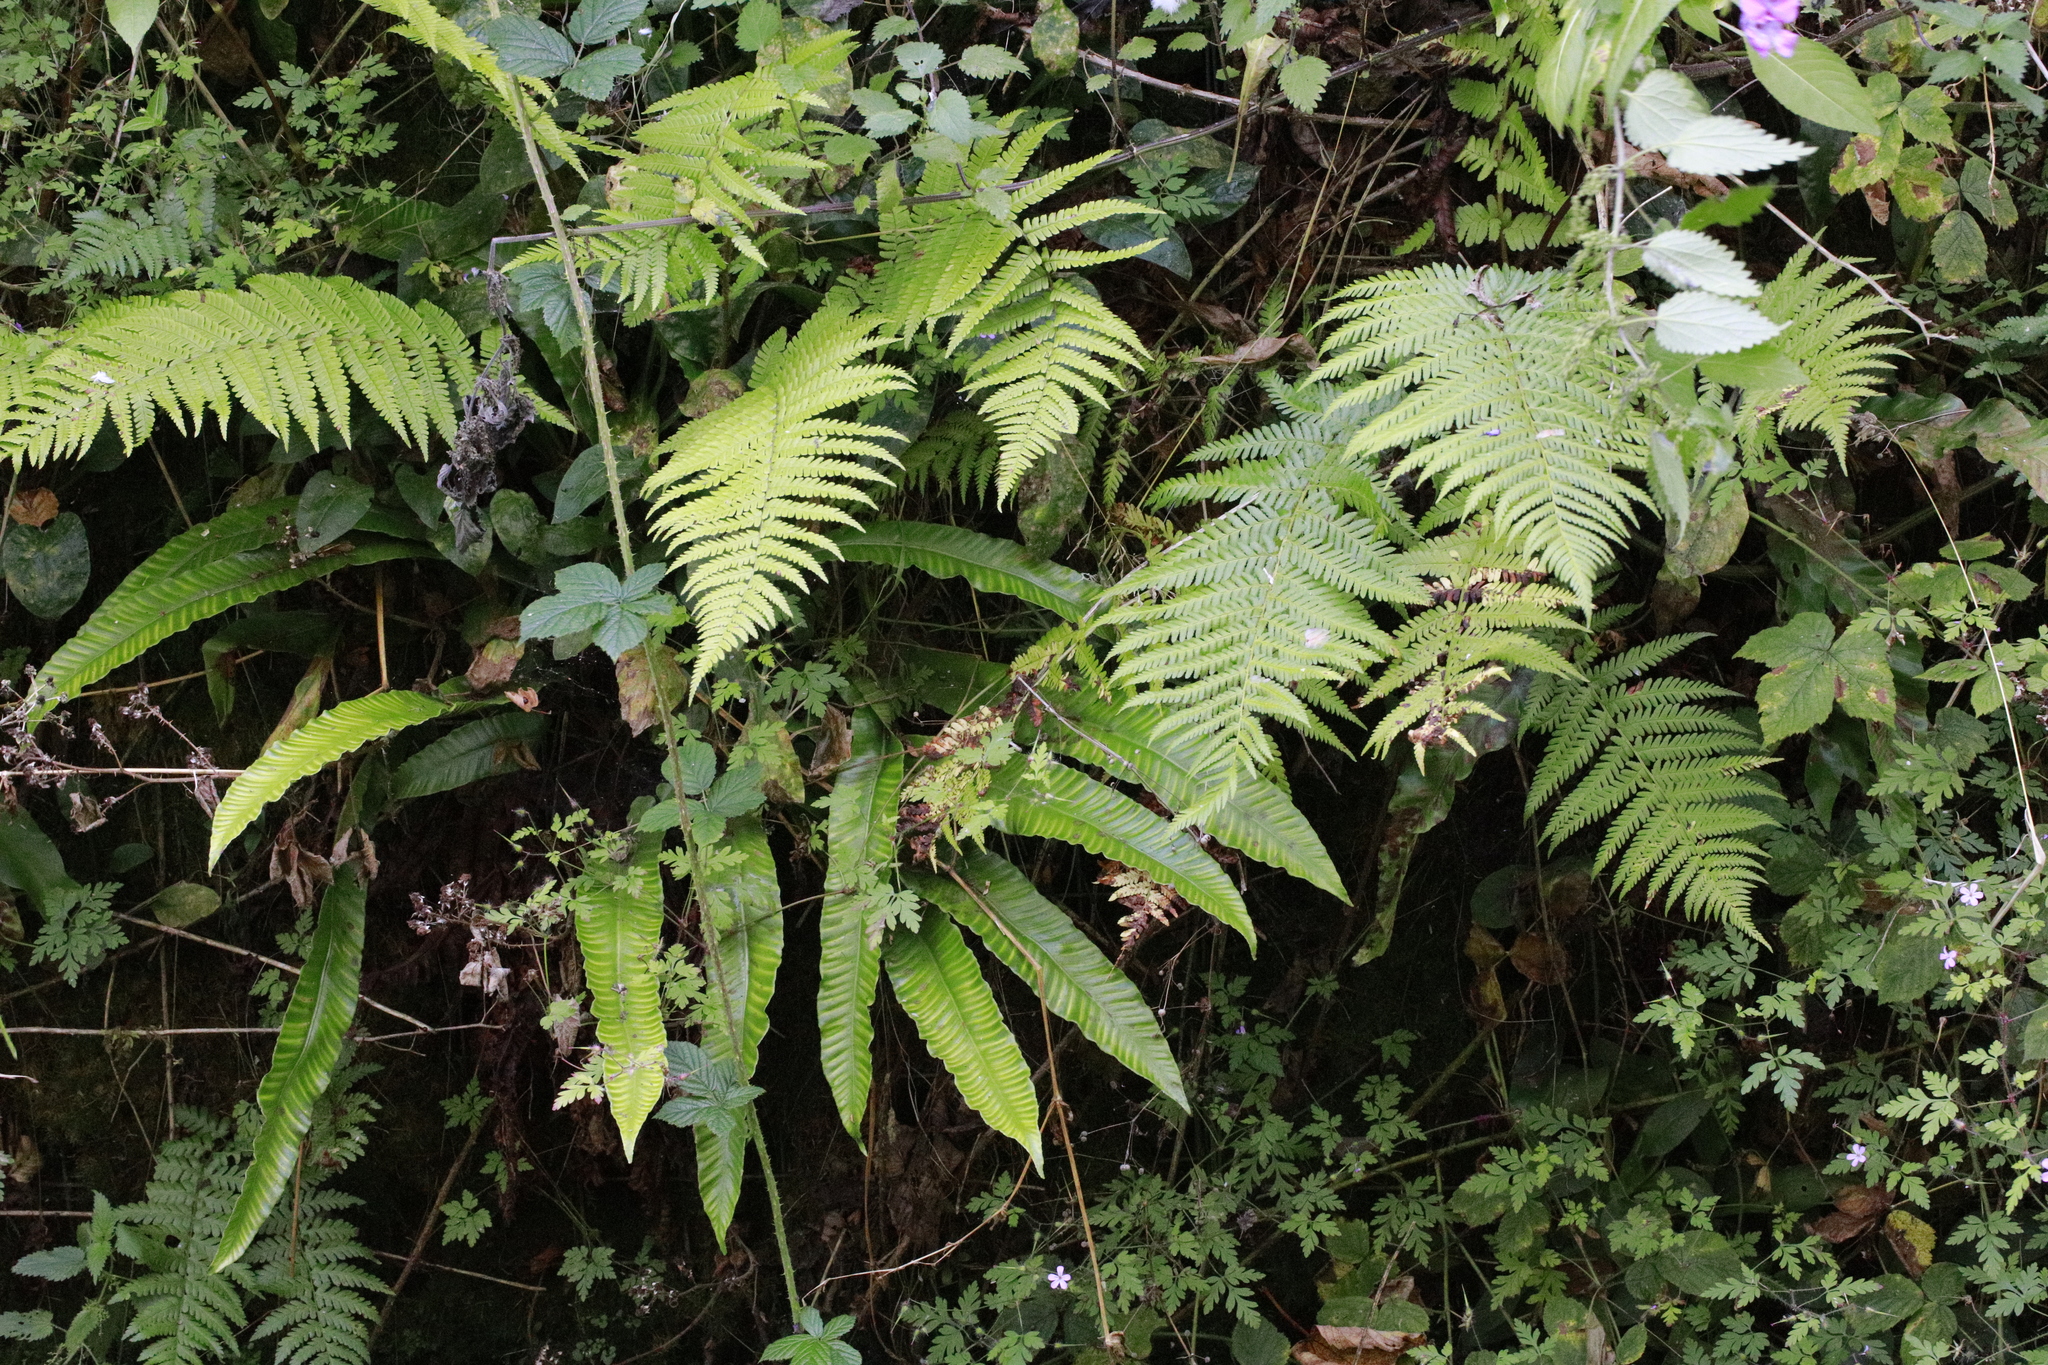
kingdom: Plantae
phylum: Tracheophyta
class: Polypodiopsida
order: Polypodiales
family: Aspleniaceae
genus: Asplenium
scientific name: Asplenium scolopendrium
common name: Hart's-tongue fern
